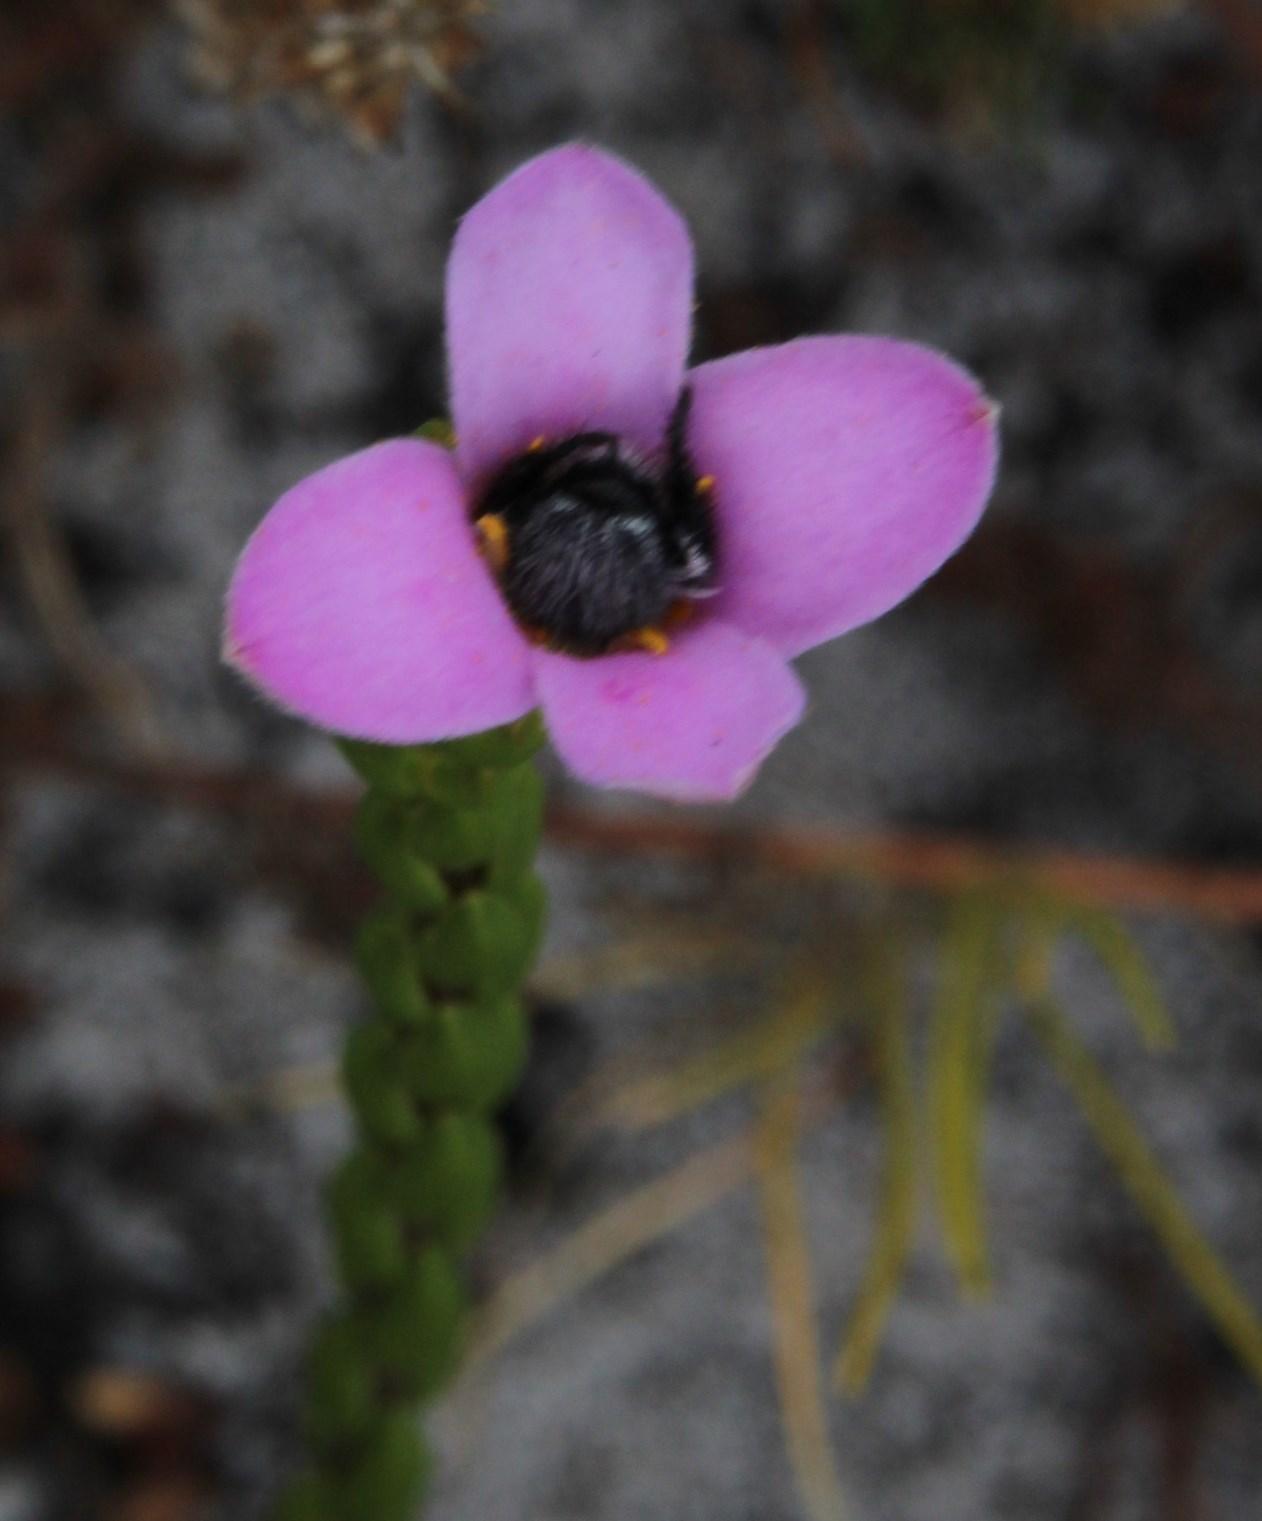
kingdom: Plantae
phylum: Tracheophyta
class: Magnoliopsida
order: Malvales
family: Thymelaeaceae
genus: Lachnaea
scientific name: Lachnaea grandiflora
